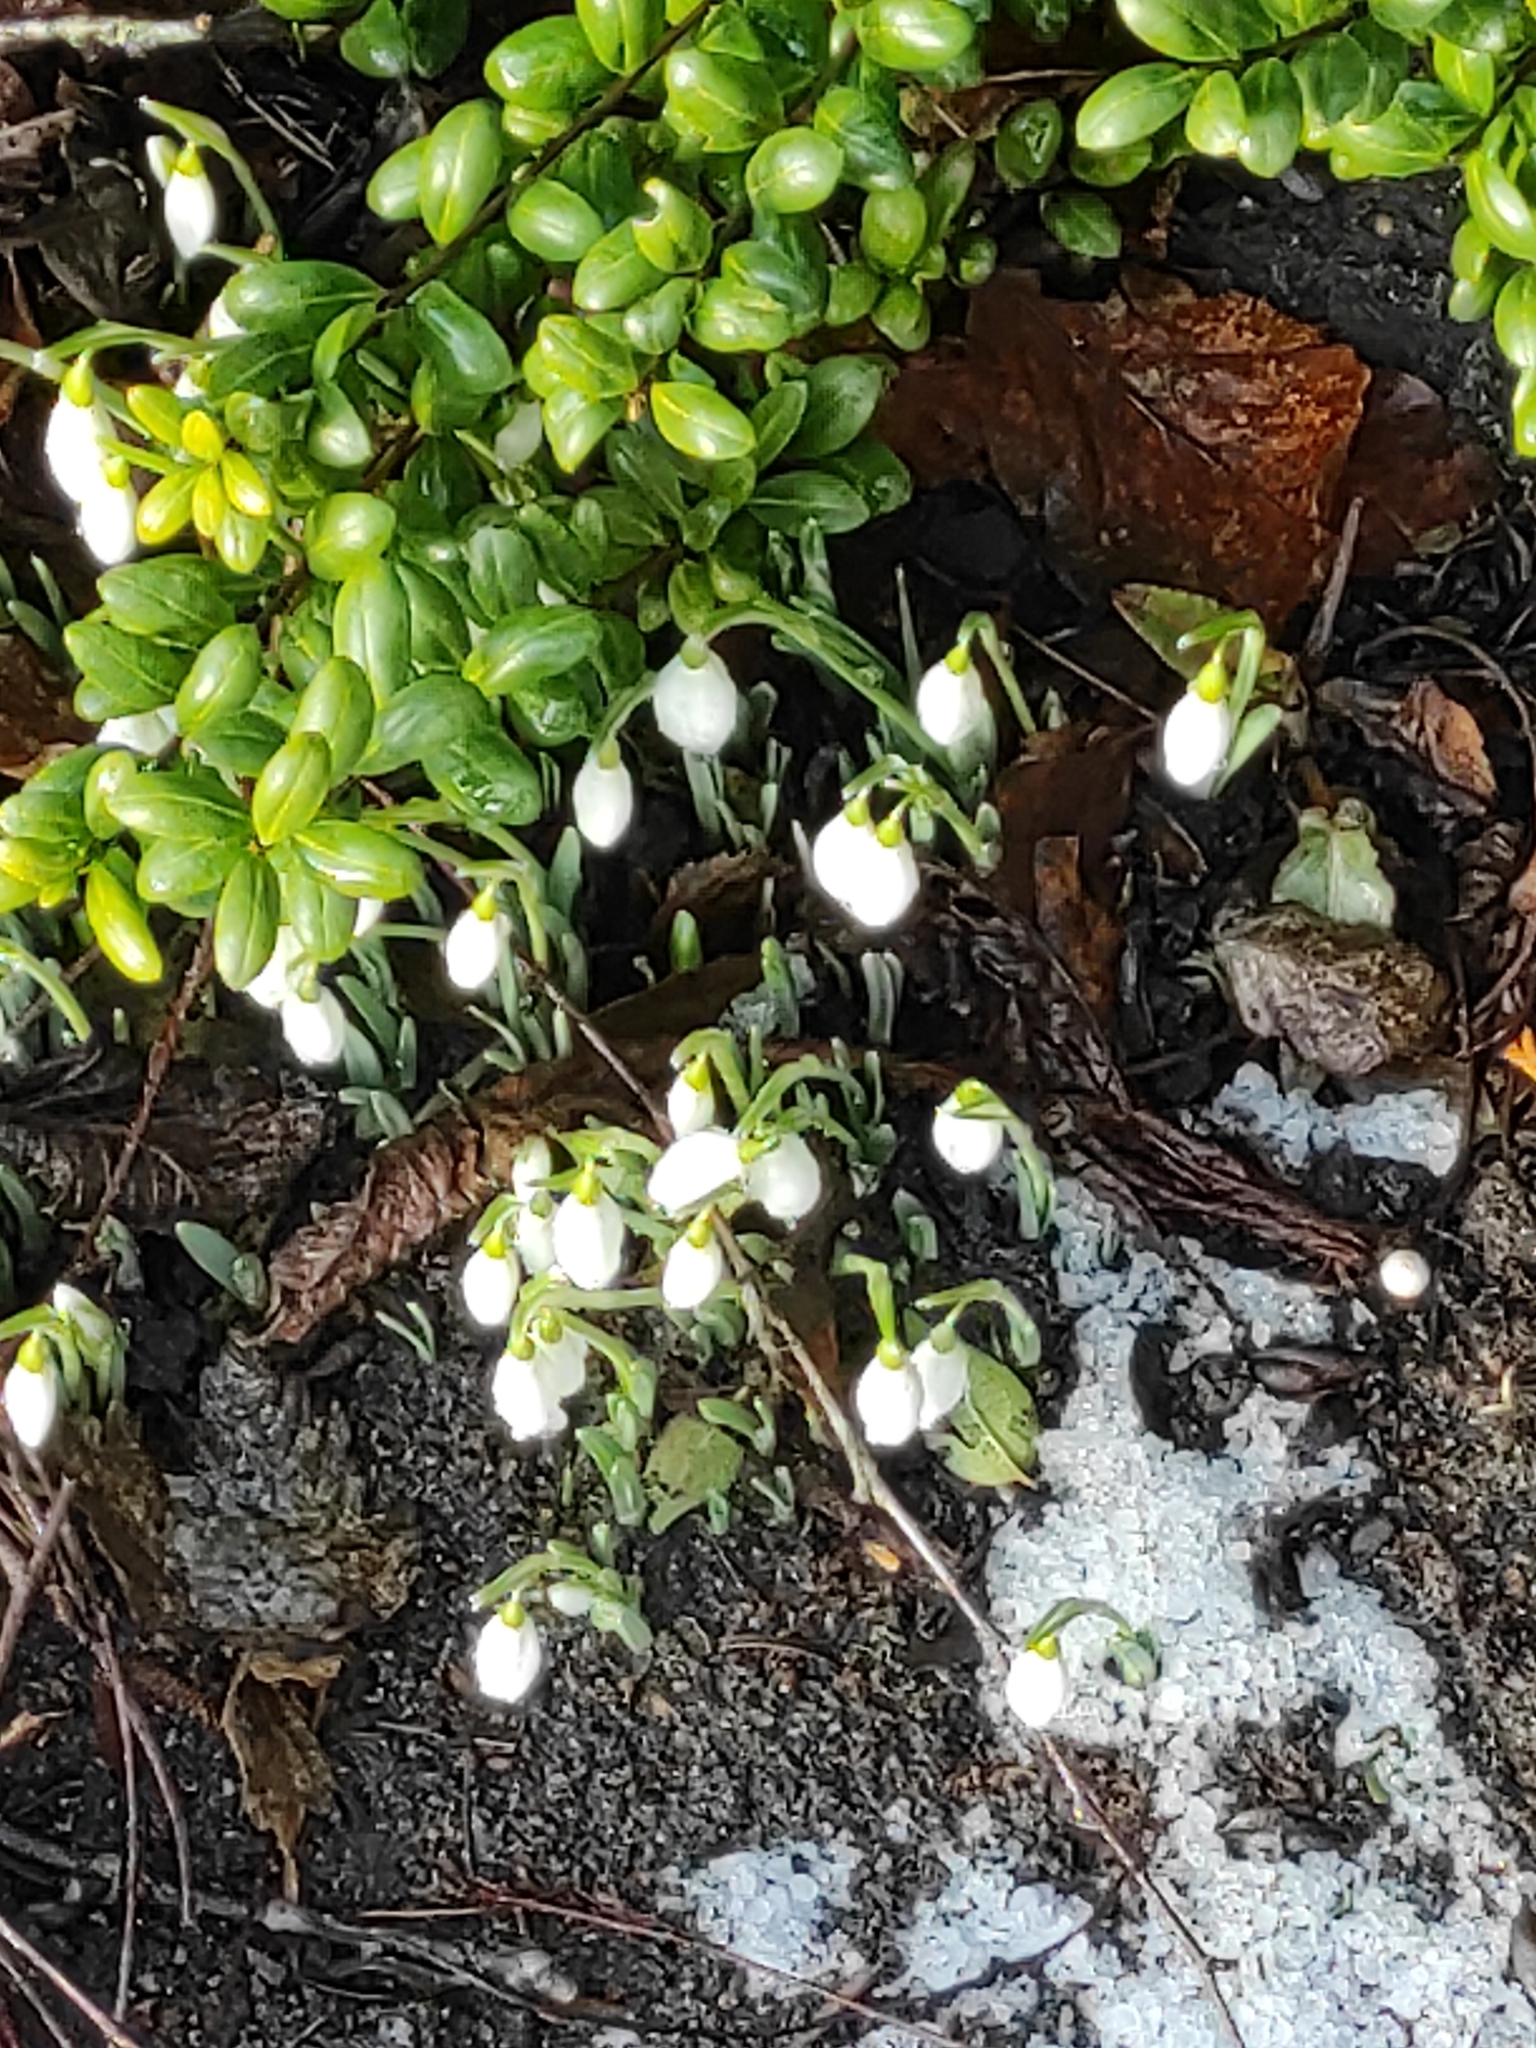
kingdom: Plantae
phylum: Tracheophyta
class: Liliopsida
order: Asparagales
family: Amaryllidaceae
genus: Galanthus
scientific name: Galanthus nivalis
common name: Snowdrop
